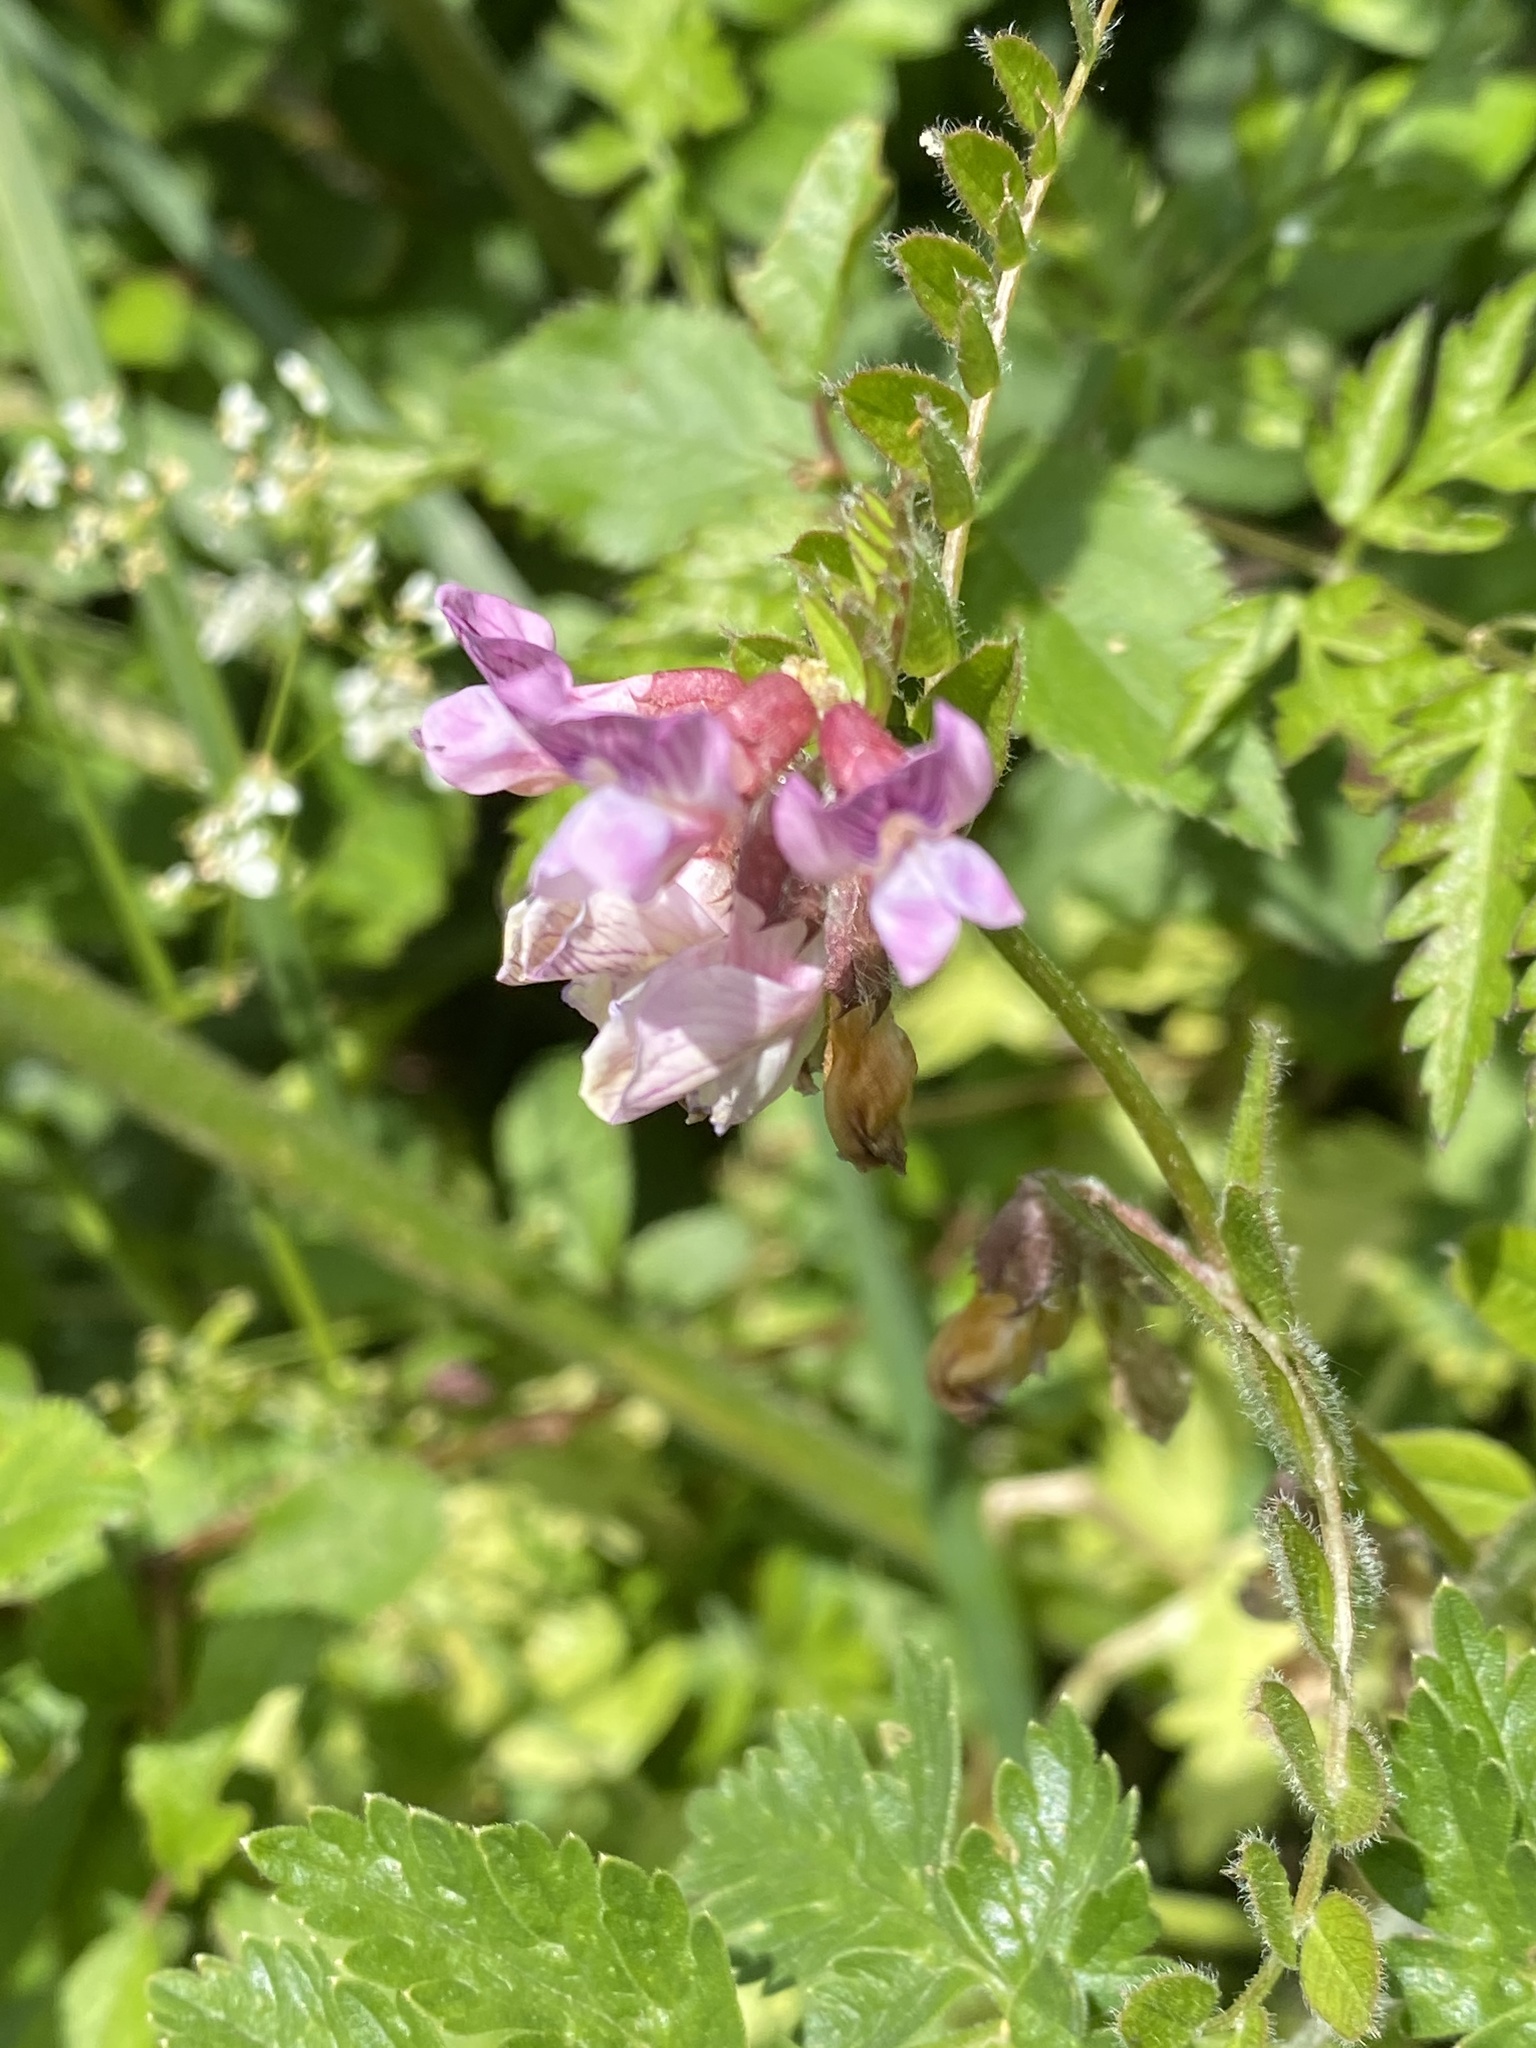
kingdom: Plantae
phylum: Tracheophyta
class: Magnoliopsida
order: Fabales
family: Fabaceae
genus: Vicia
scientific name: Vicia sepium
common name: Bush vetch
